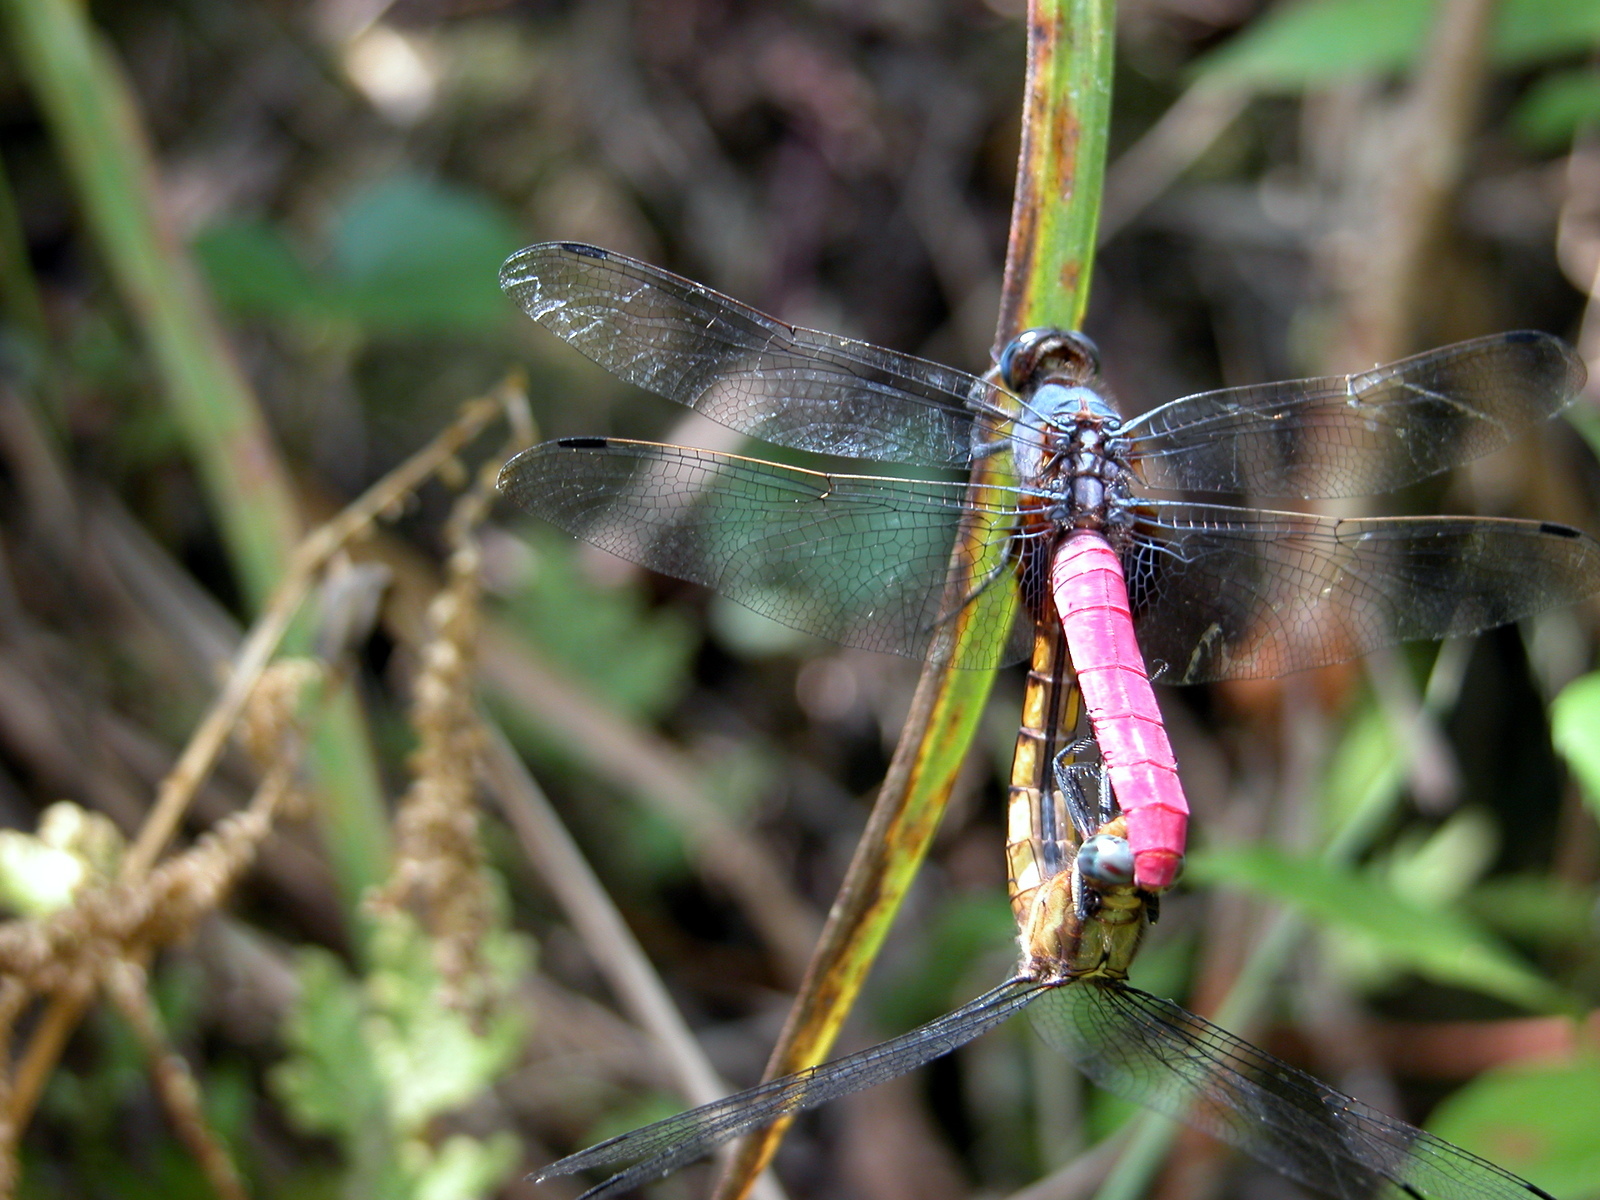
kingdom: Animalia
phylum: Arthropoda
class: Insecta
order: Odonata
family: Libellulidae
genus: Orthetrum
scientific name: Orthetrum pruinosum
